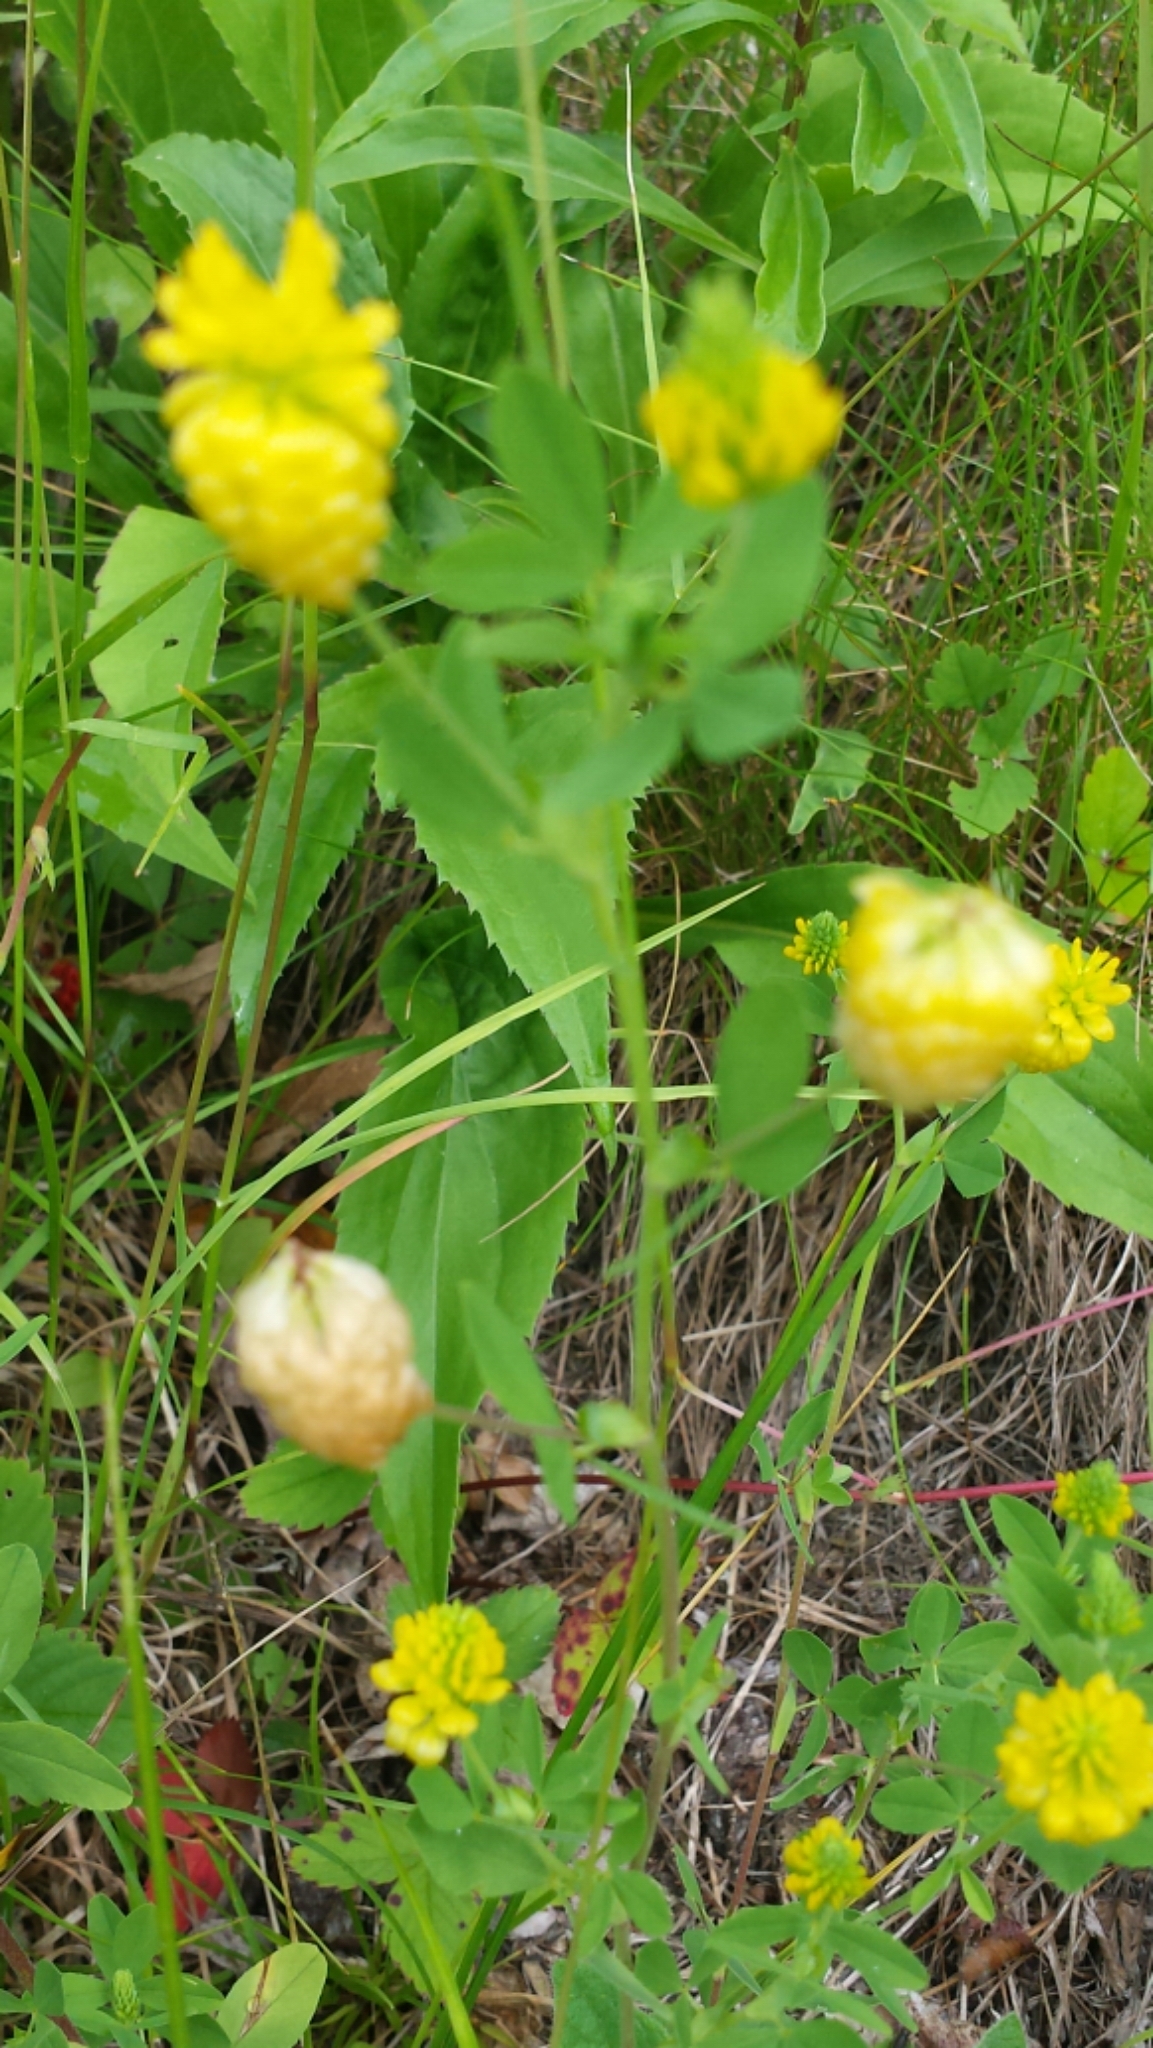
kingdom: Plantae
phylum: Tracheophyta
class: Magnoliopsida
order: Fabales
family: Fabaceae
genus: Trifolium
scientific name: Trifolium aureum
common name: Golden clover
